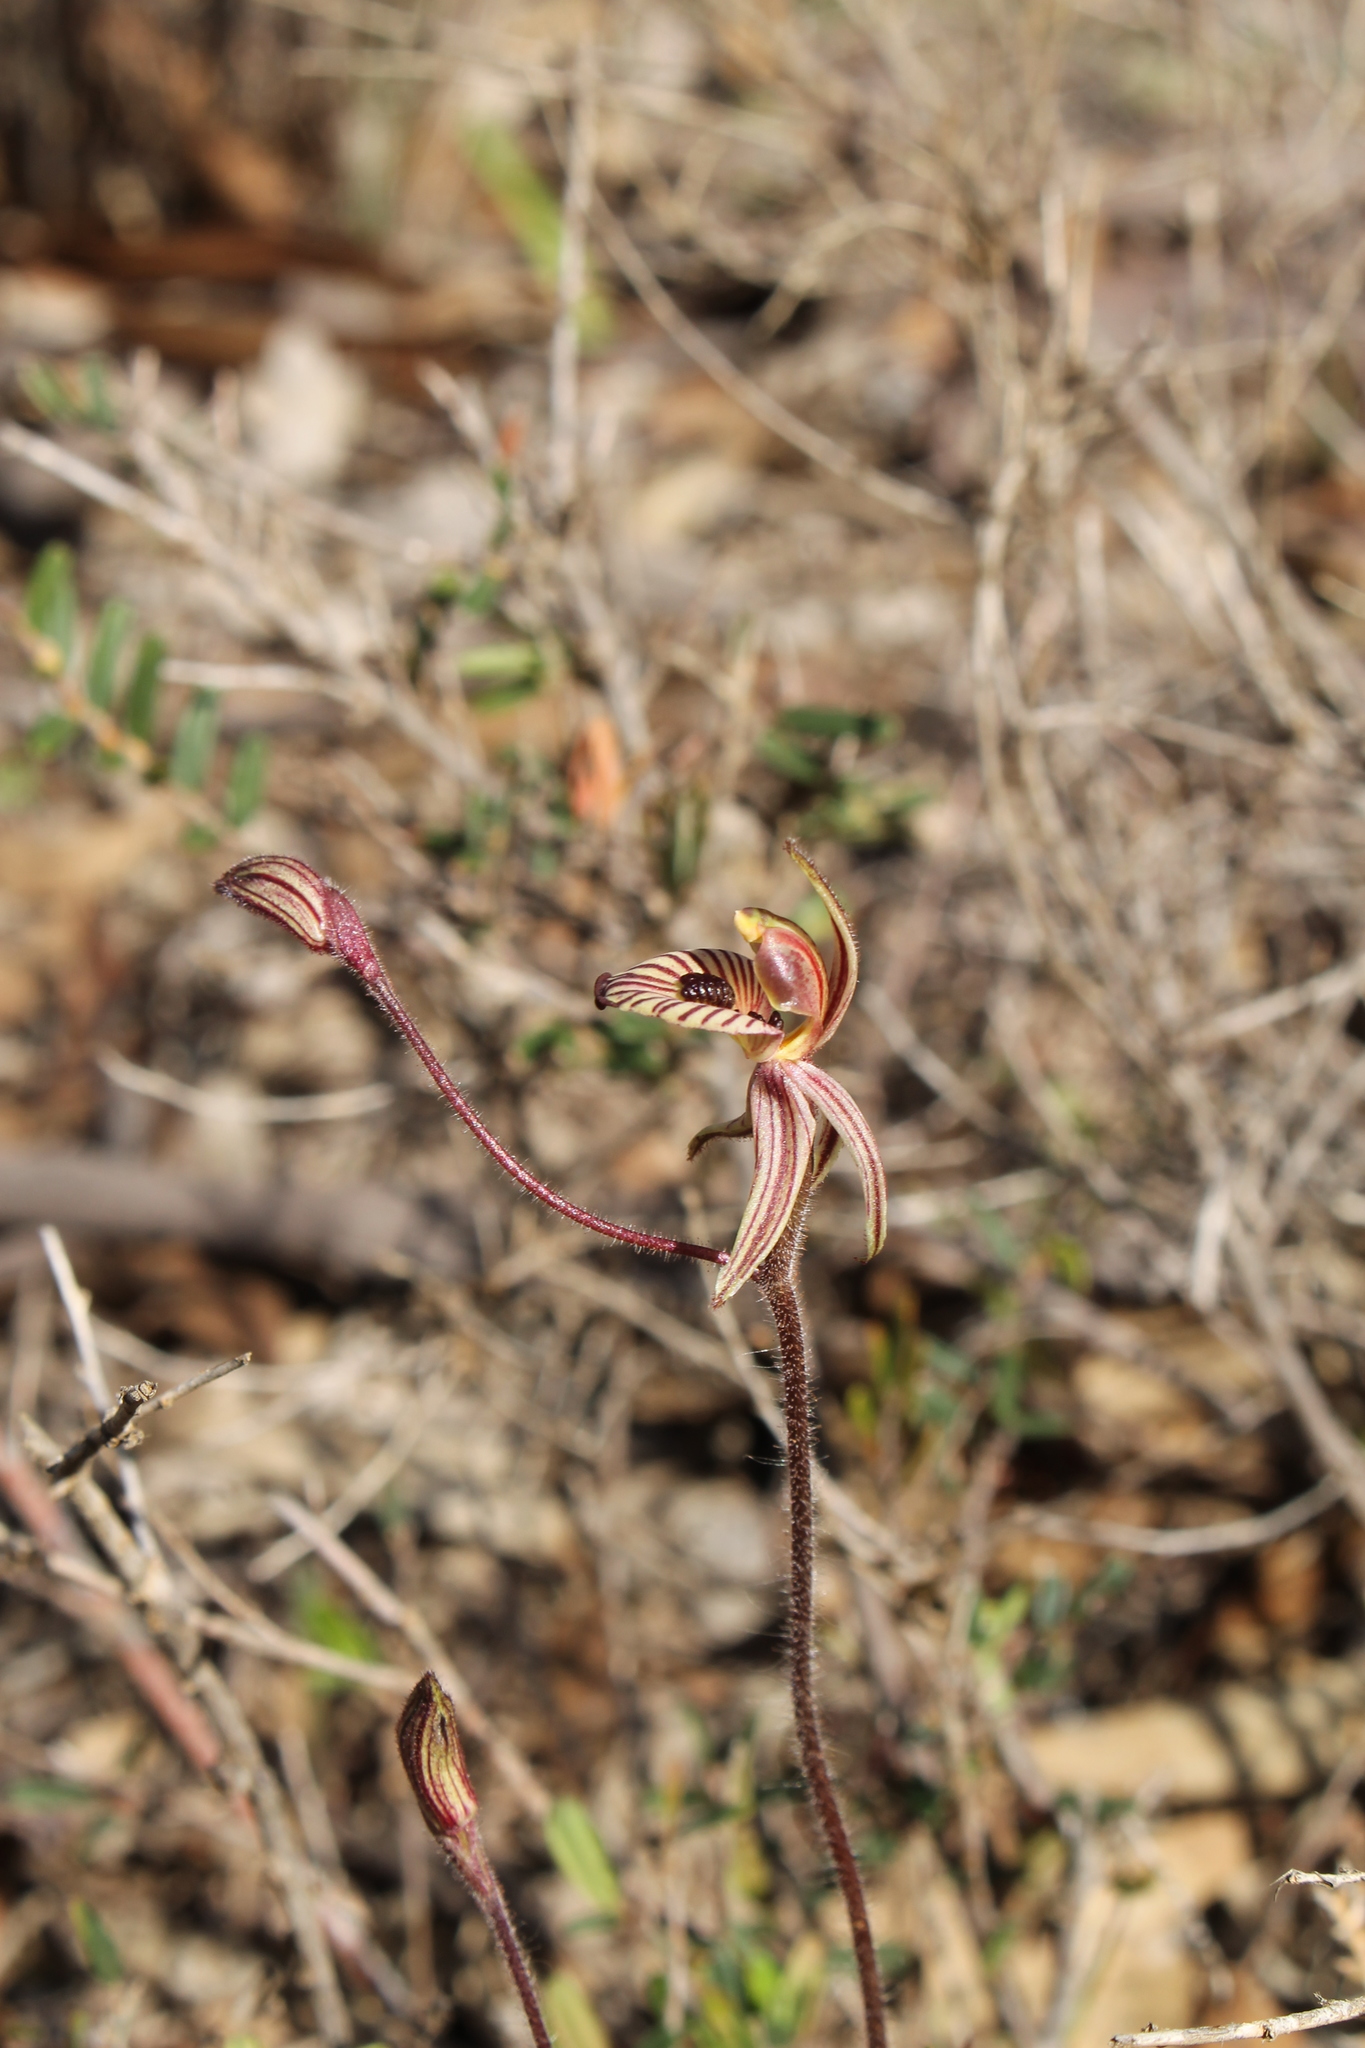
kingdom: Plantae
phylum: Tracheophyta
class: Liliopsida
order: Asparagales
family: Orchidaceae
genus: Caladenia
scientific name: Caladenia cairnsiana
